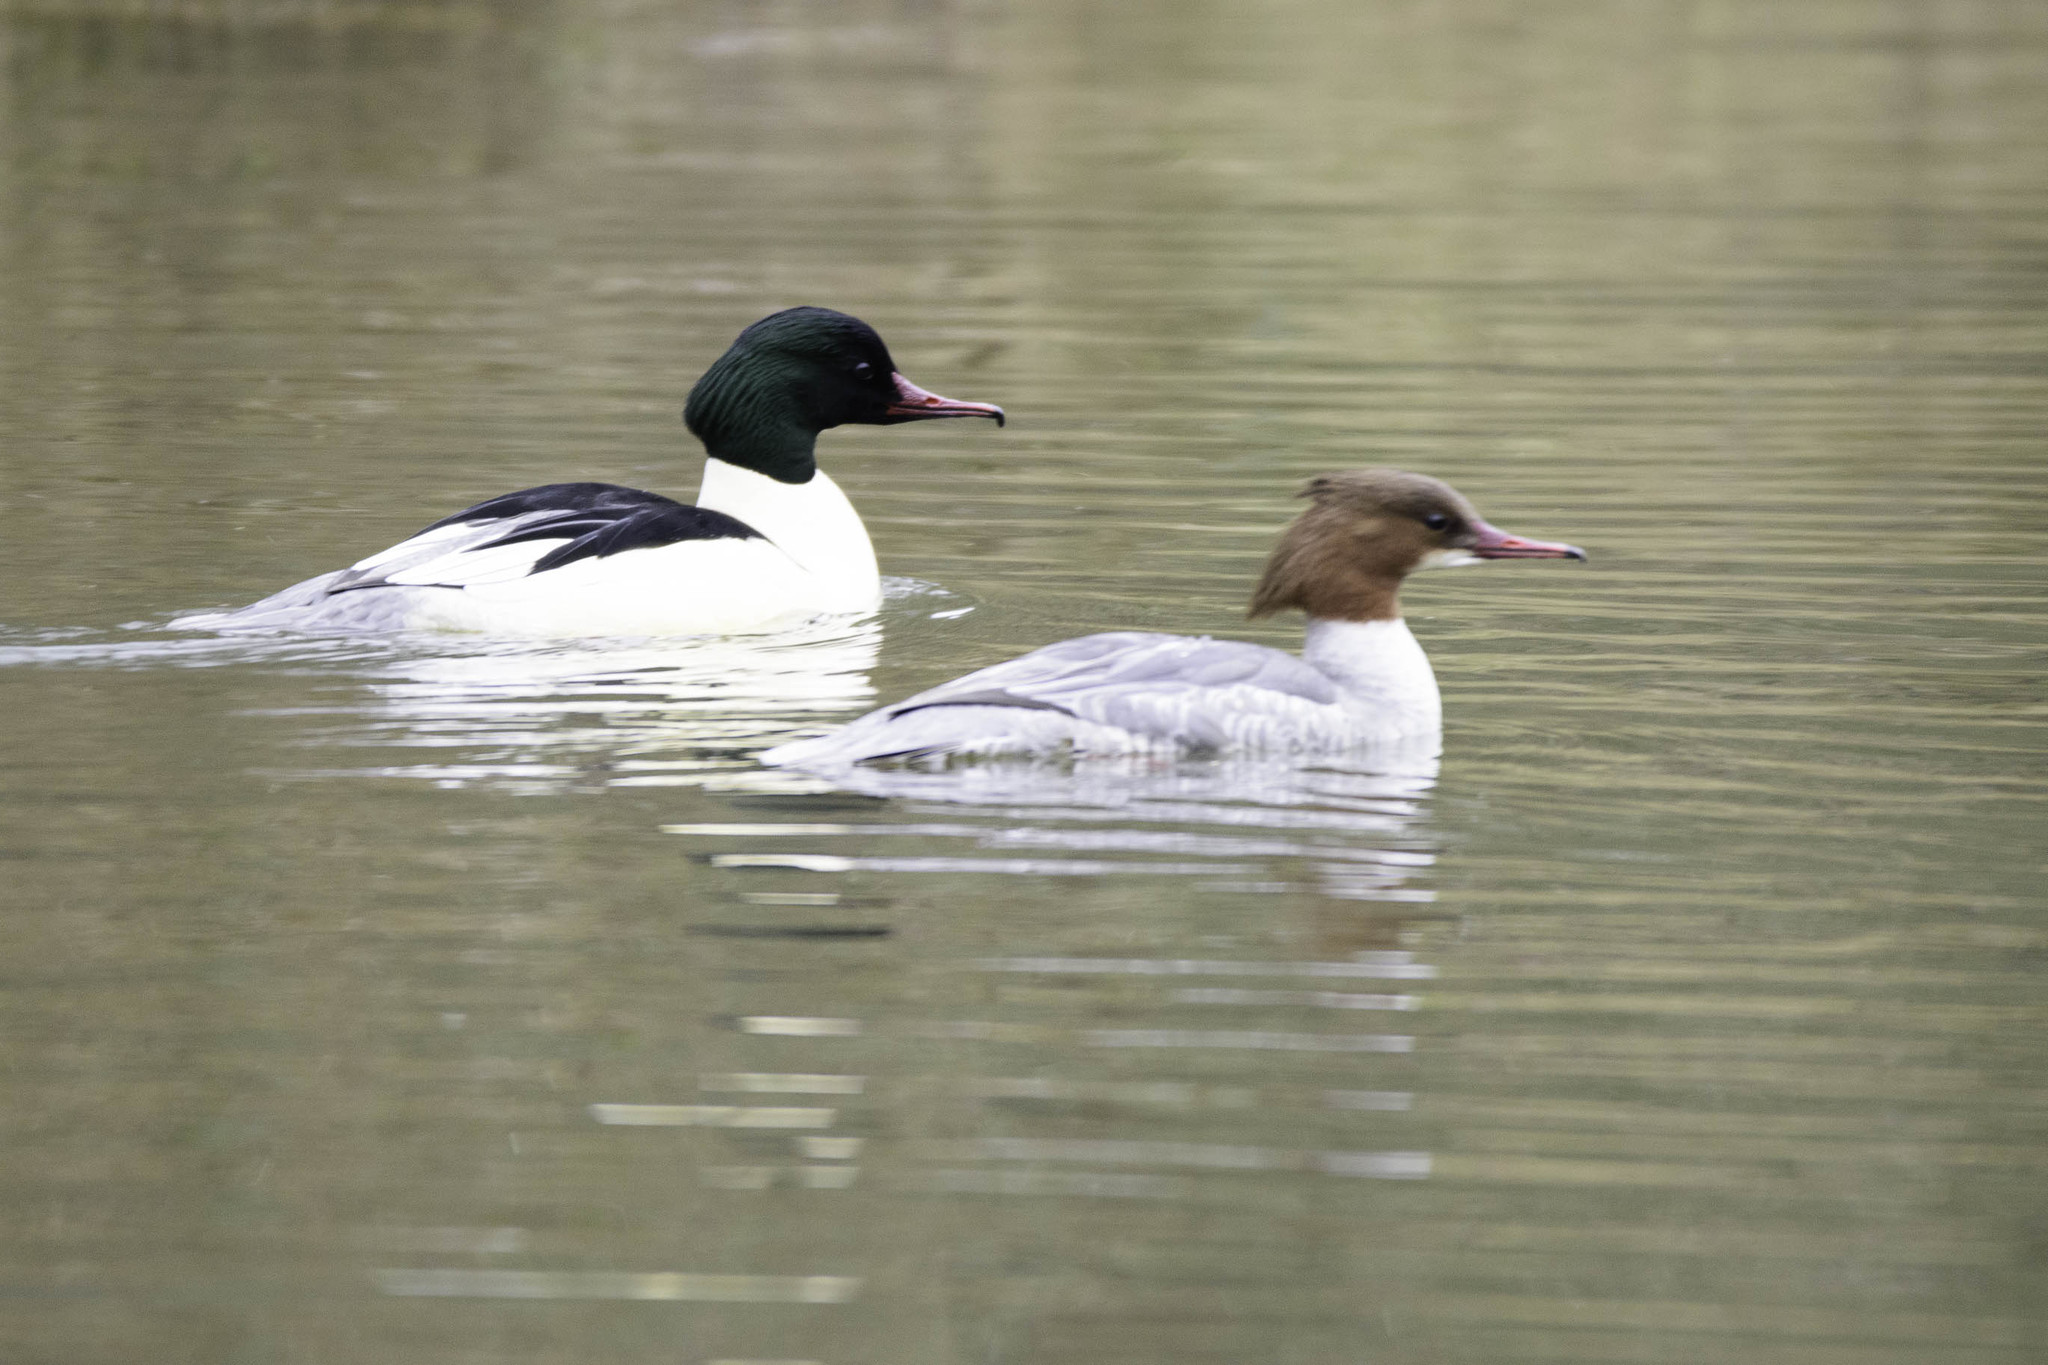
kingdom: Animalia
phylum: Chordata
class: Aves
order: Anseriformes
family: Anatidae
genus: Mergus
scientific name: Mergus merganser
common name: Common merganser
